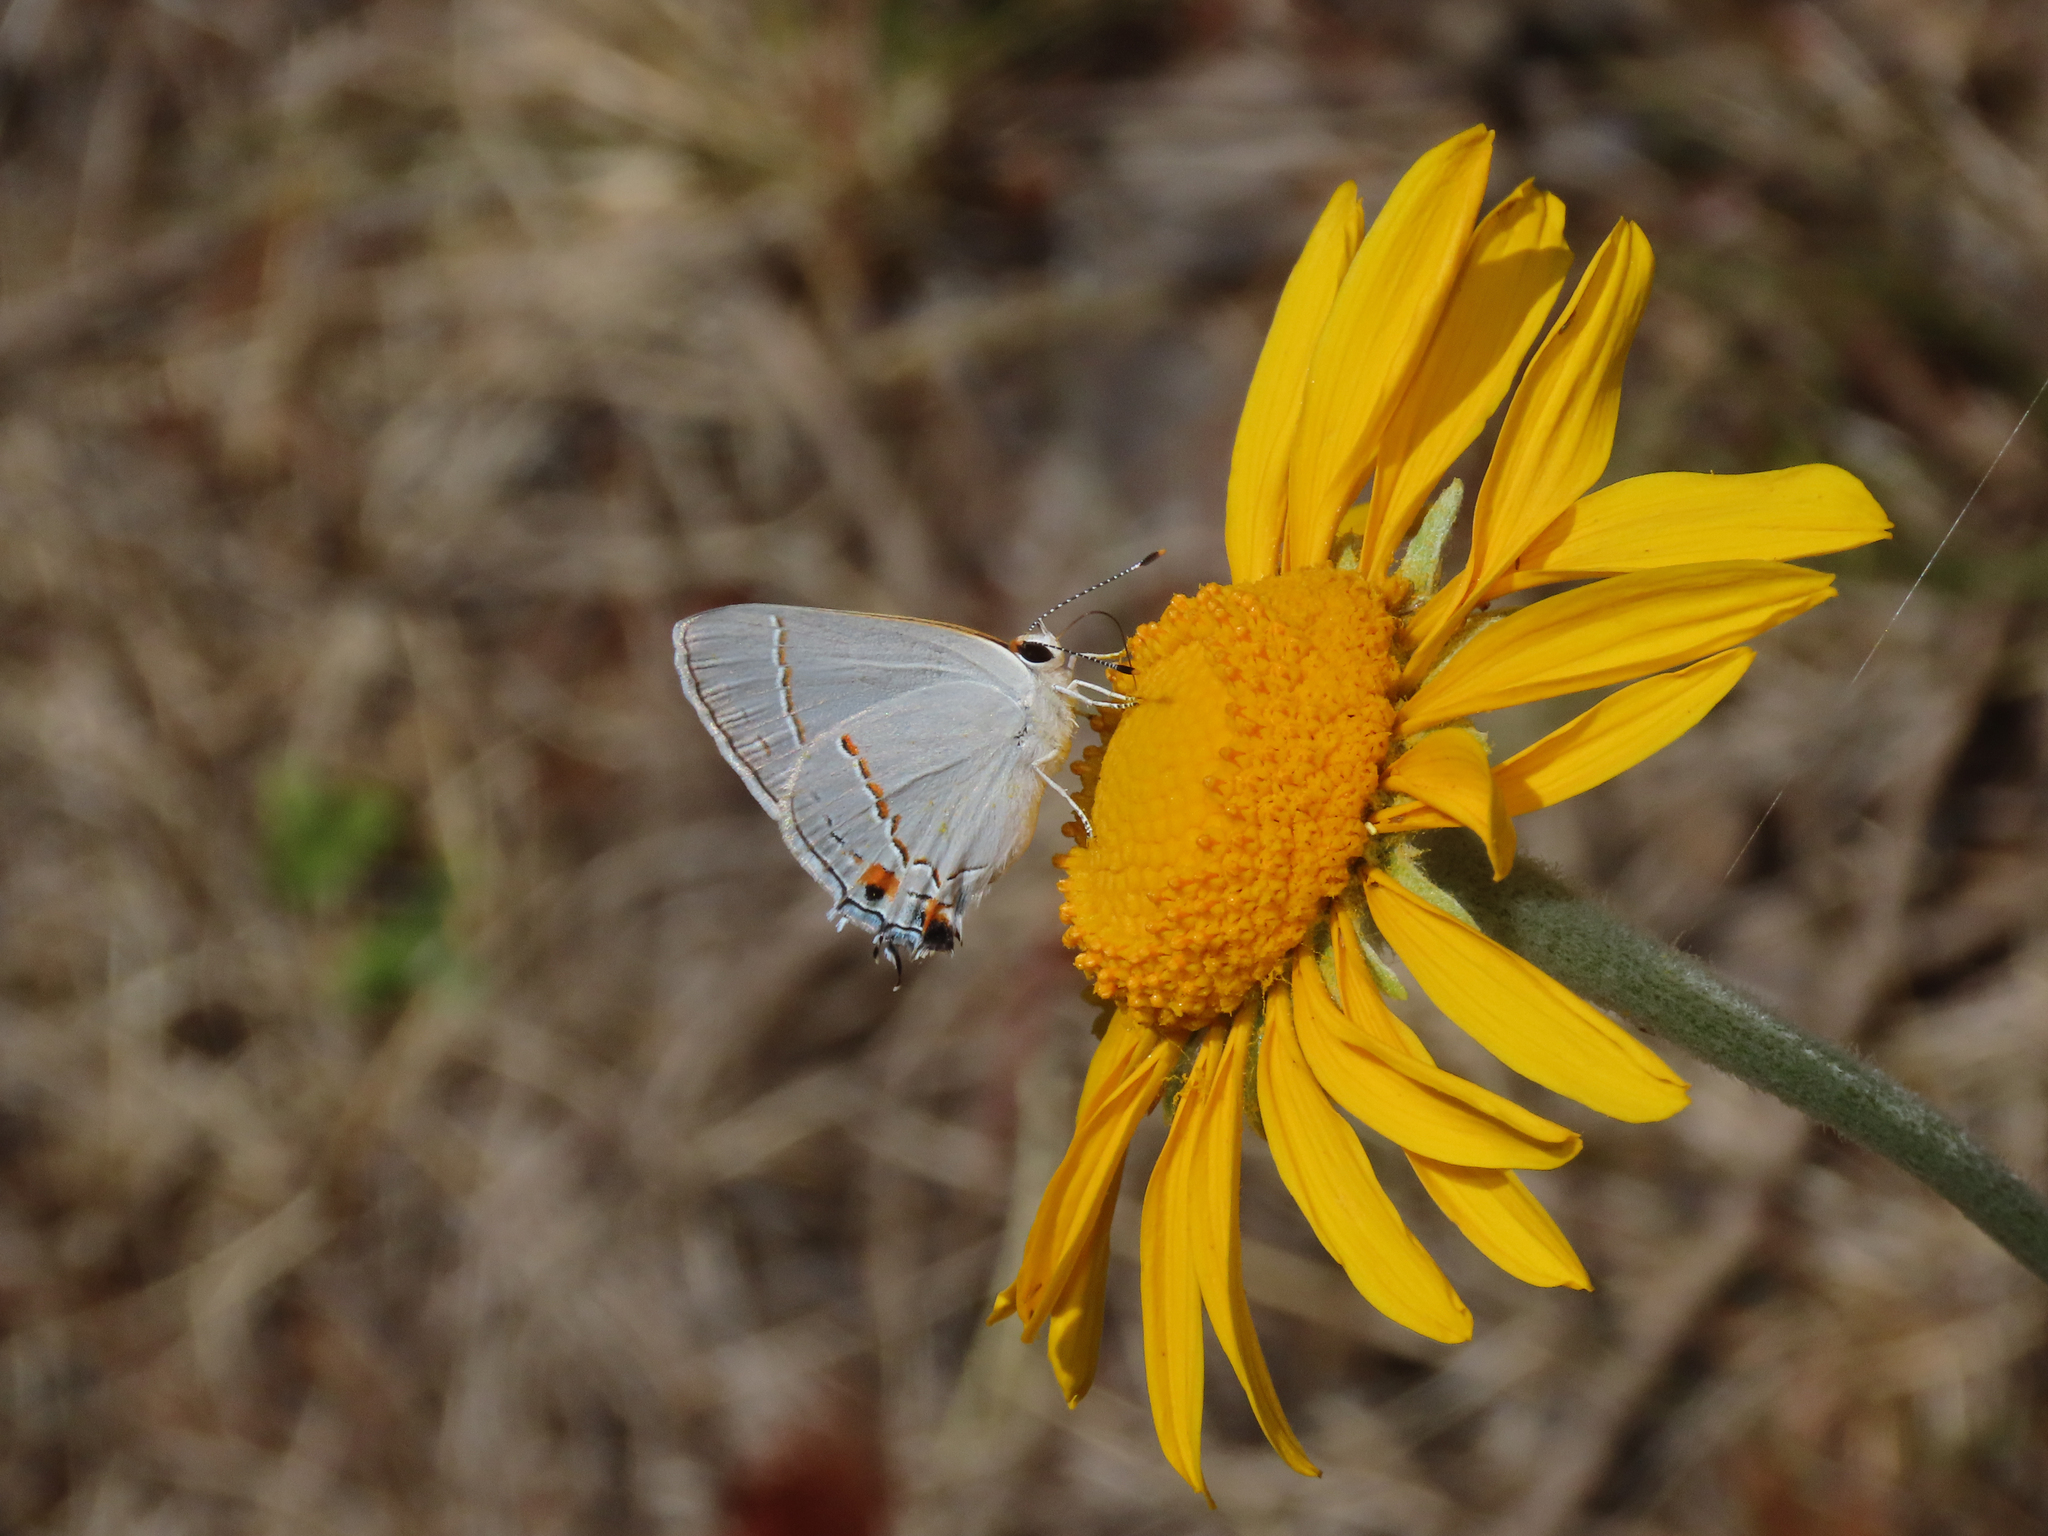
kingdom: Animalia
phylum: Arthropoda
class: Insecta
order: Lepidoptera
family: Lycaenidae
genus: Strymon
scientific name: Strymon melinus
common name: Gray hairstreak
